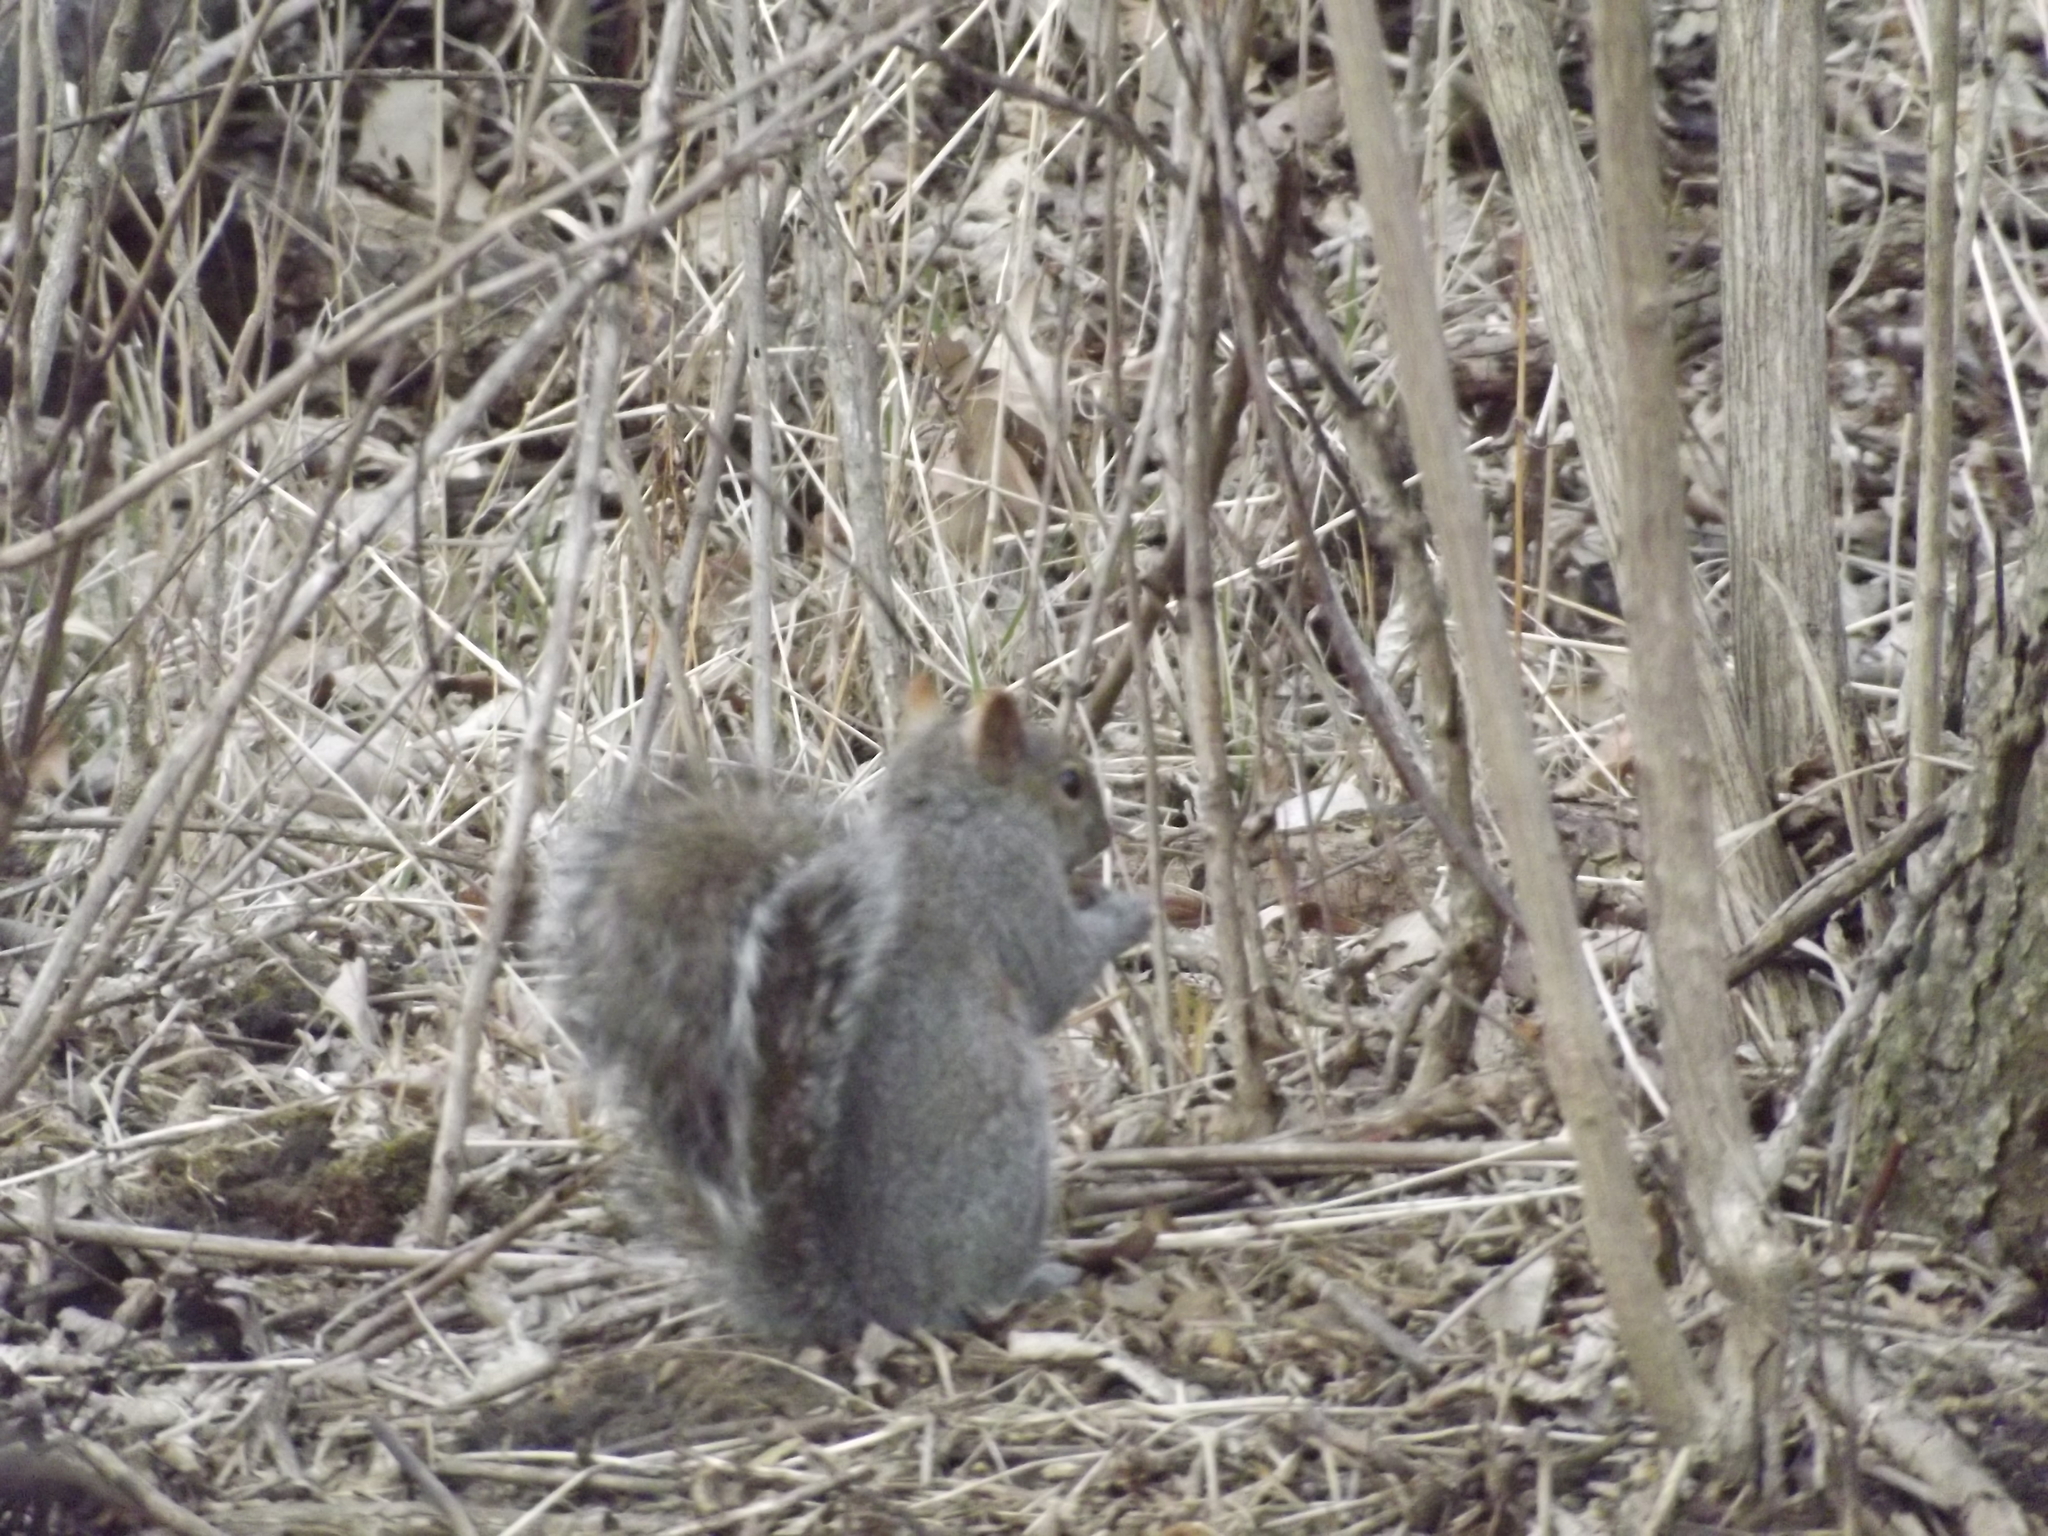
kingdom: Animalia
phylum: Chordata
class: Mammalia
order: Rodentia
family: Sciuridae
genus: Sciurus
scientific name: Sciurus carolinensis
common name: Eastern gray squirrel
